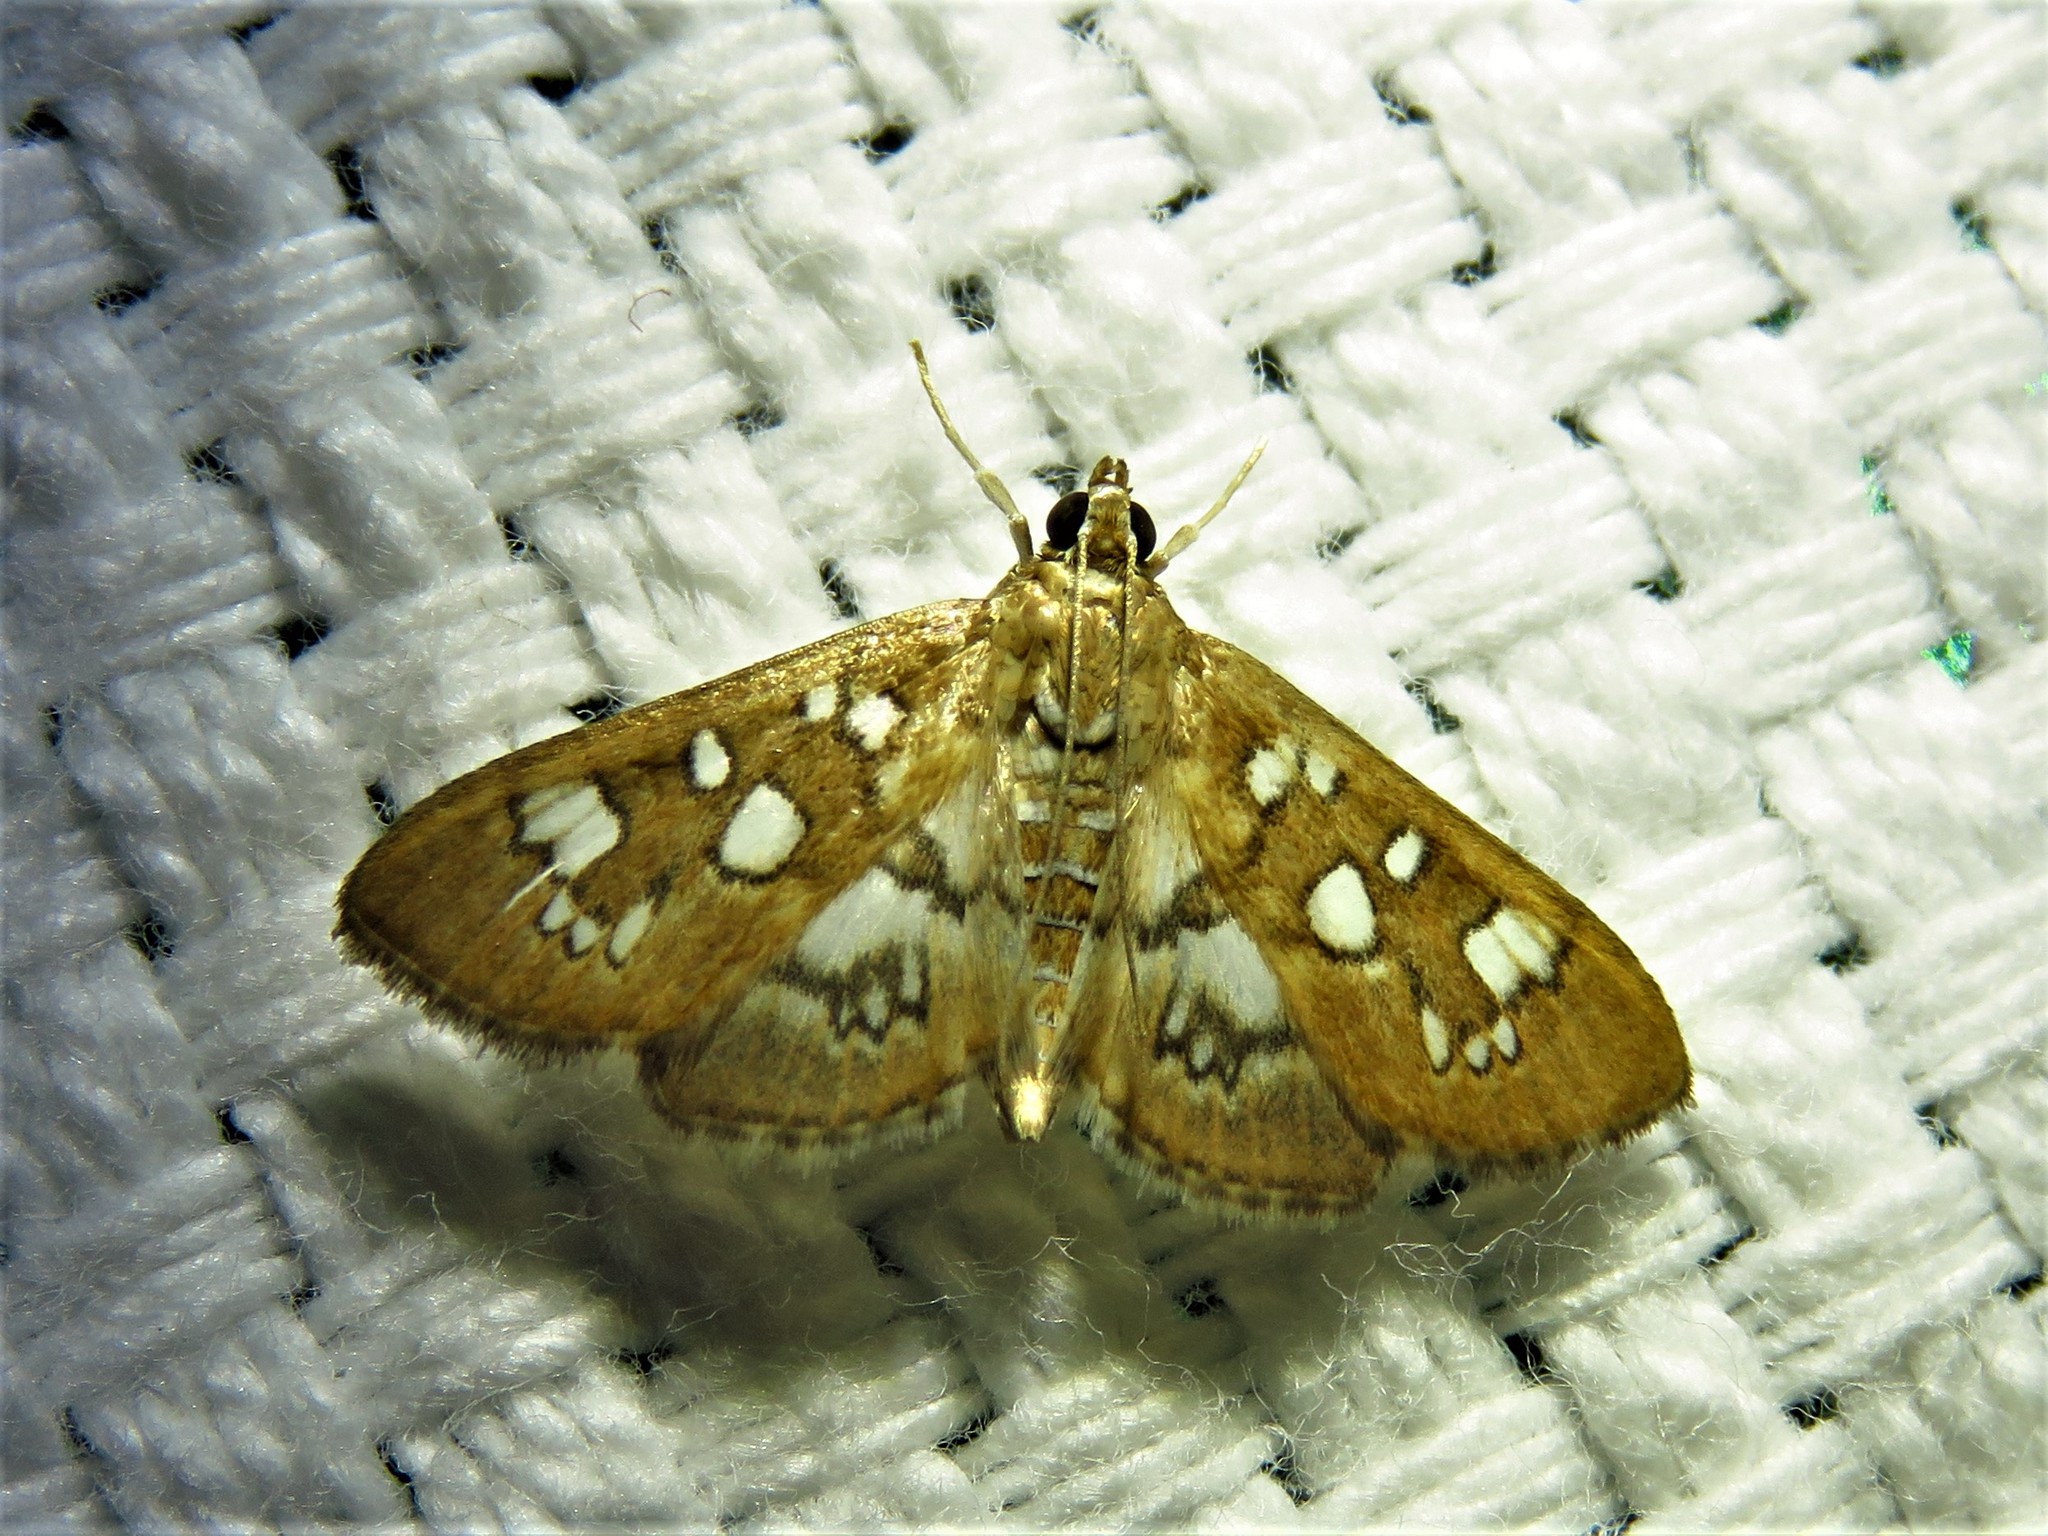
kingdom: Animalia
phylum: Arthropoda
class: Insecta
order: Lepidoptera
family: Crambidae
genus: Samea
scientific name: Samea baccatalis
